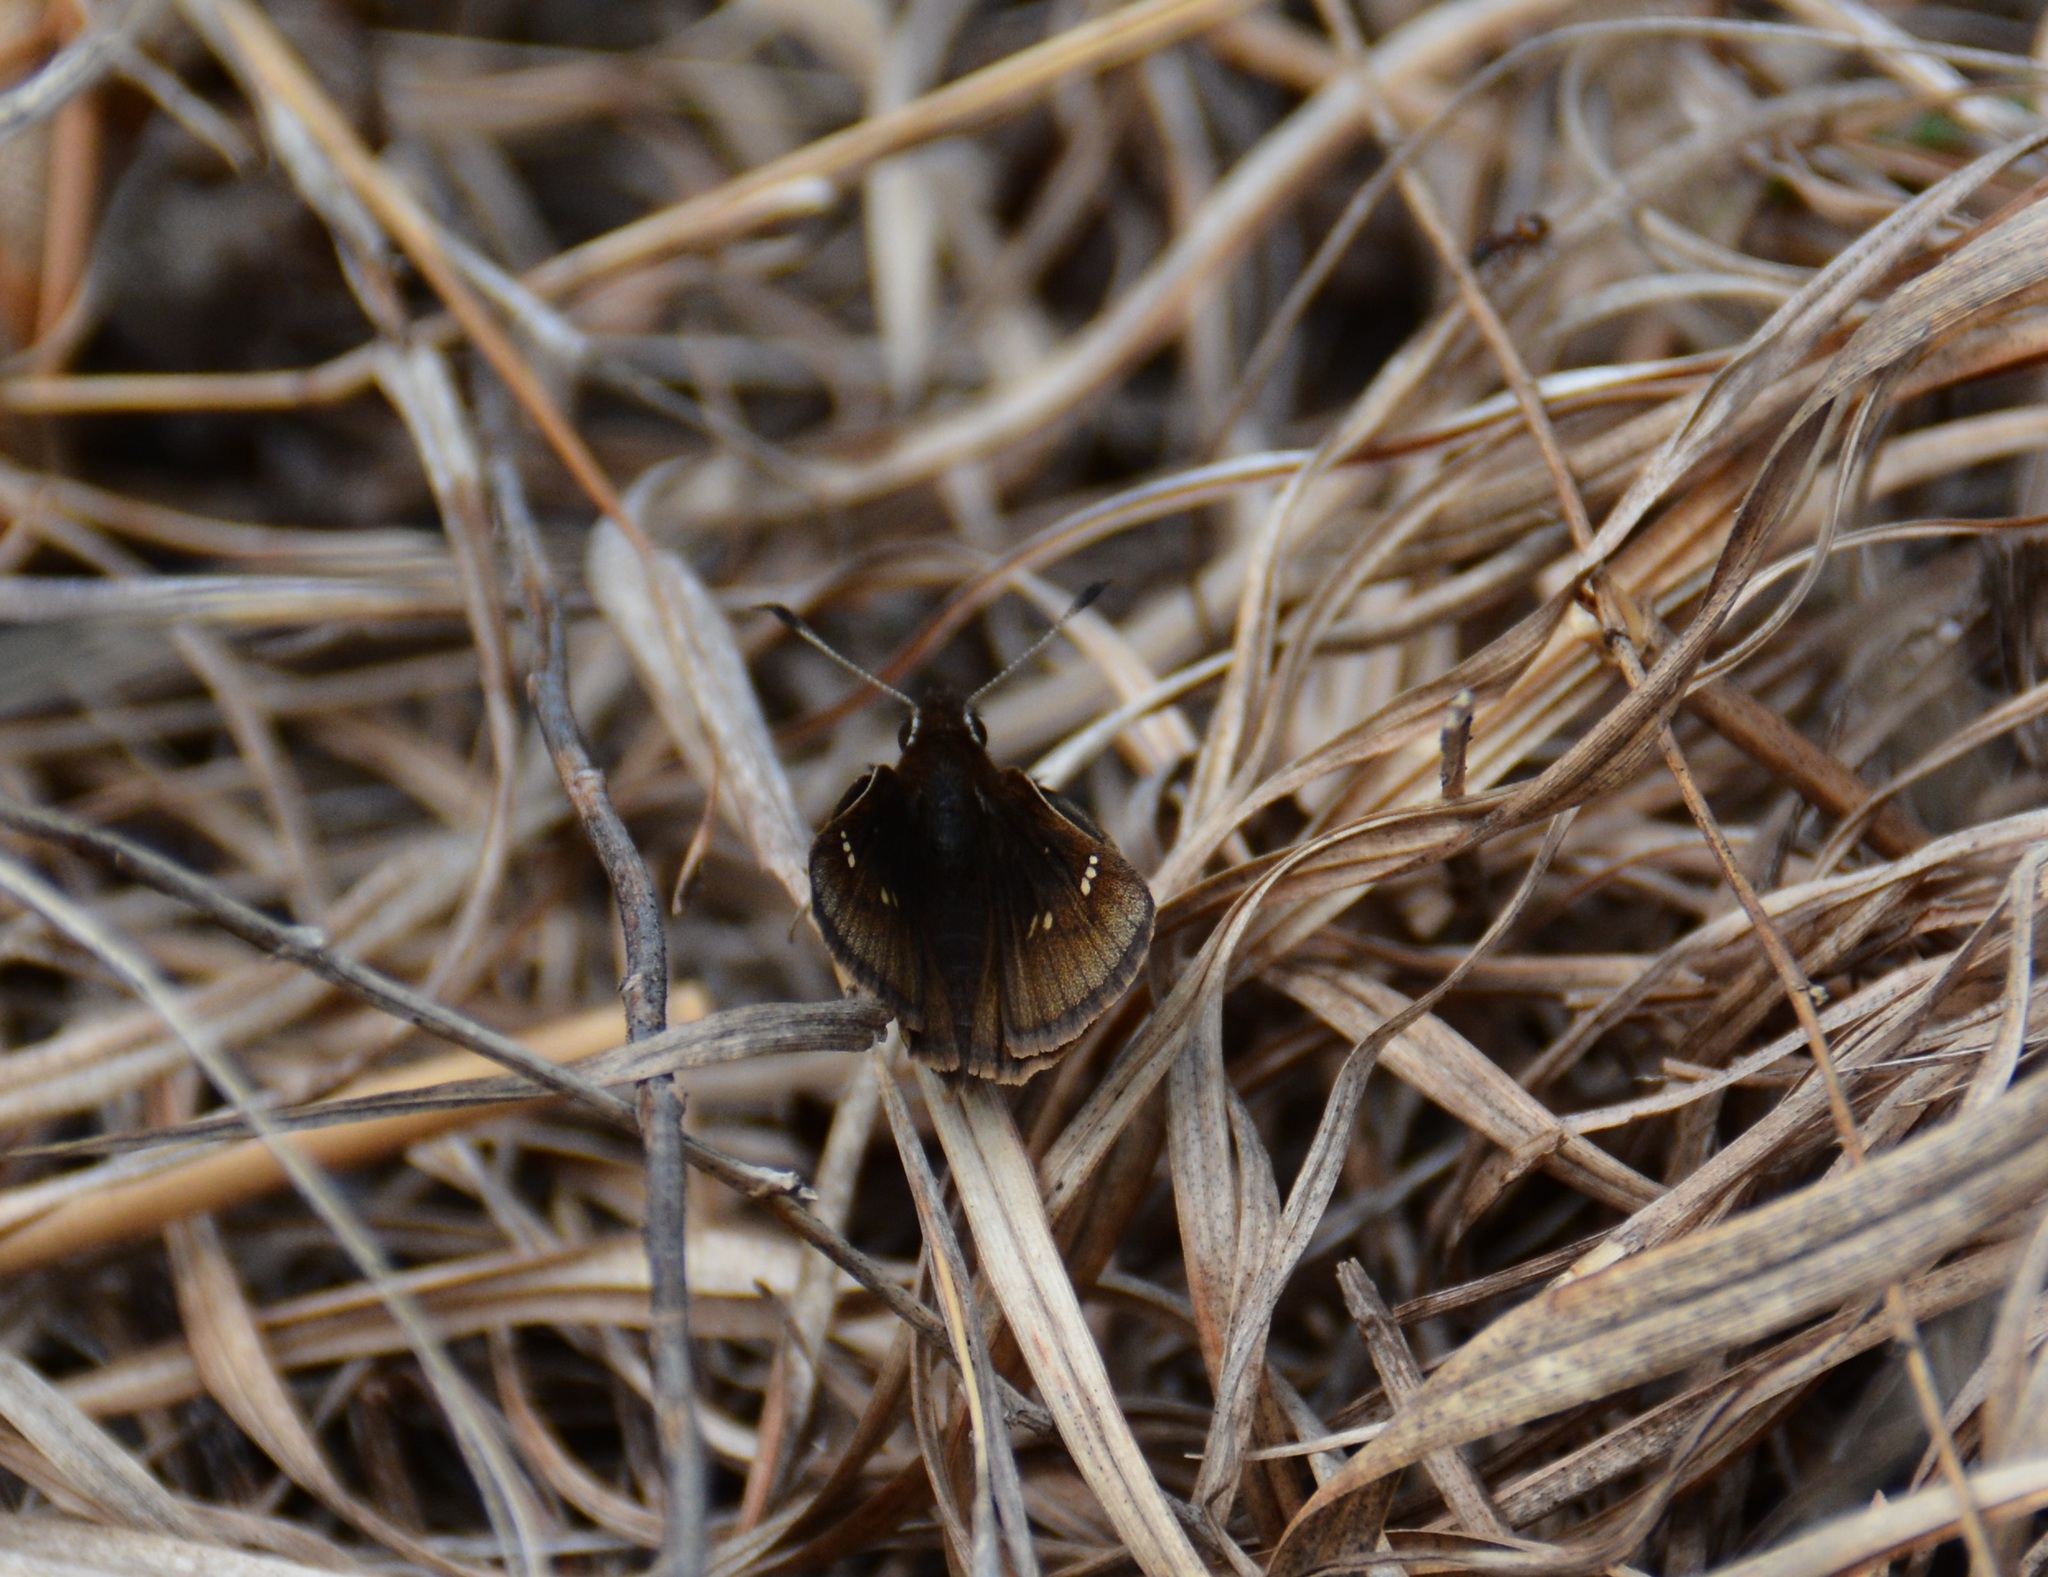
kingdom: Animalia
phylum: Arthropoda
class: Insecta
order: Lepidoptera
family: Hesperiidae
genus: Atrytonopsis
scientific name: Atrytonopsis hianna
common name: Dusted skipper
